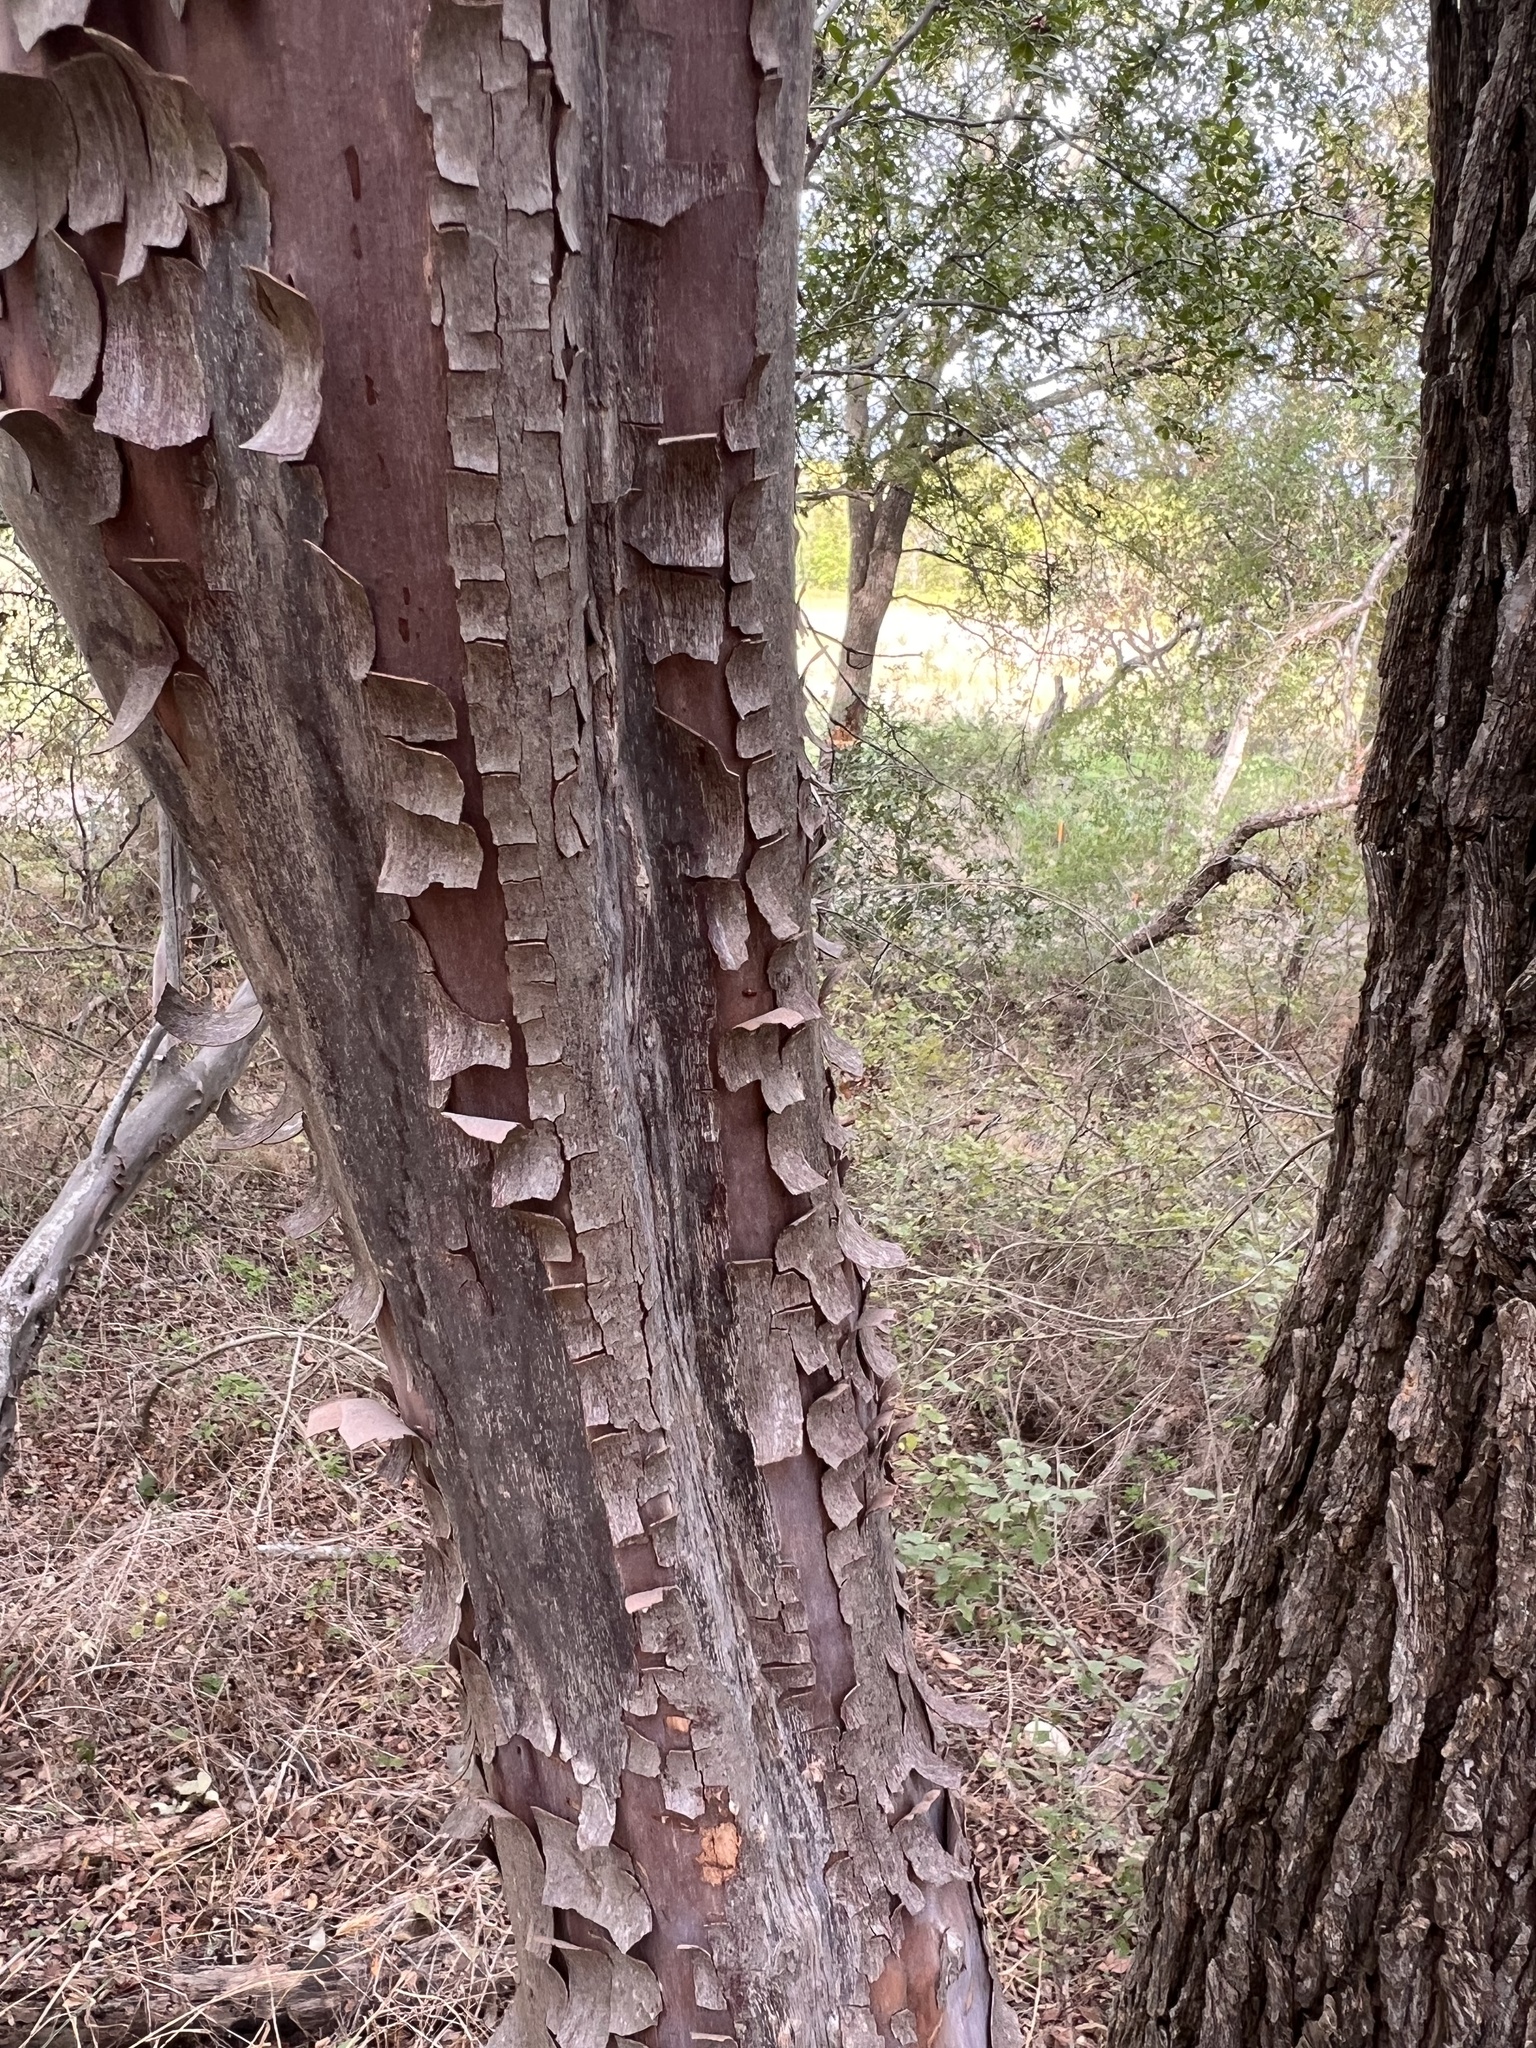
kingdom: Plantae
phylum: Tracheophyta
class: Magnoliopsida
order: Ericales
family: Ebenaceae
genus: Diospyros
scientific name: Diospyros texana
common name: Texas persimmon
